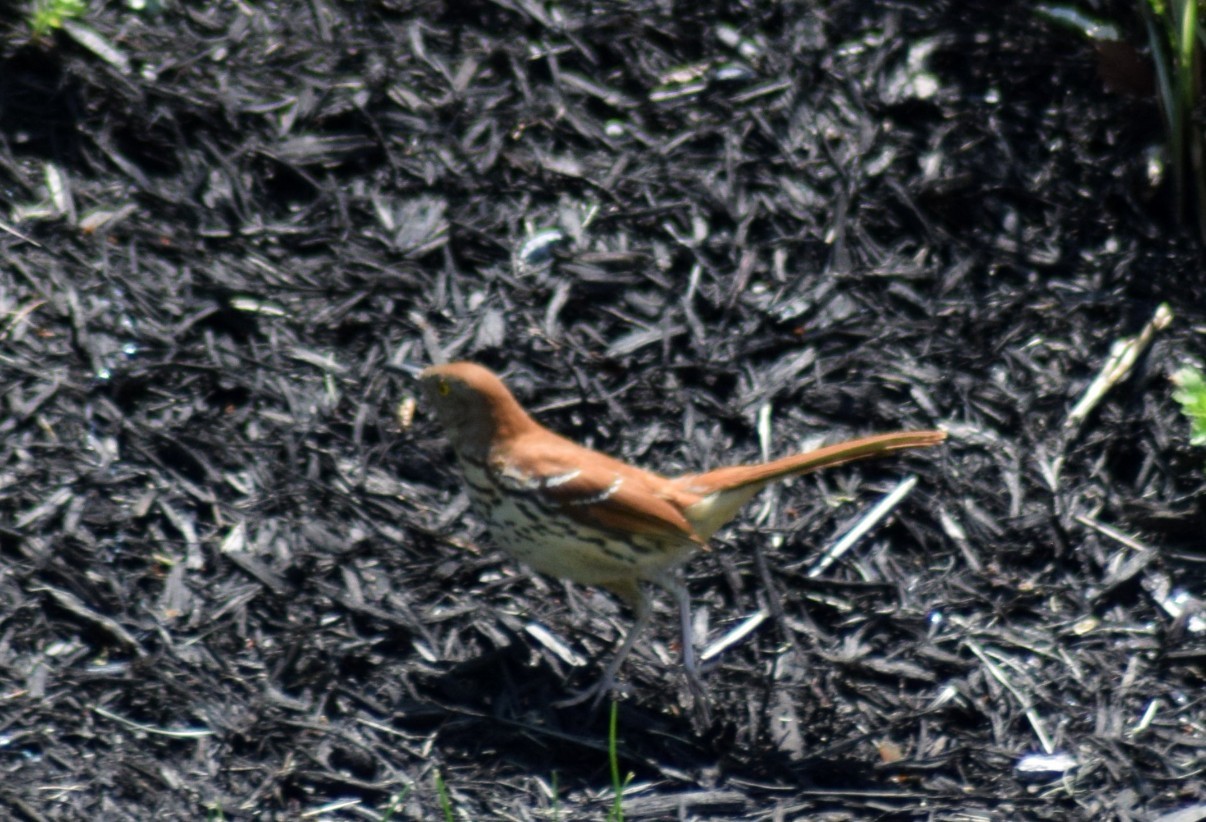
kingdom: Animalia
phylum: Chordata
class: Aves
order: Passeriformes
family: Mimidae
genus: Toxostoma
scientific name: Toxostoma rufum
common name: Brown thrasher
